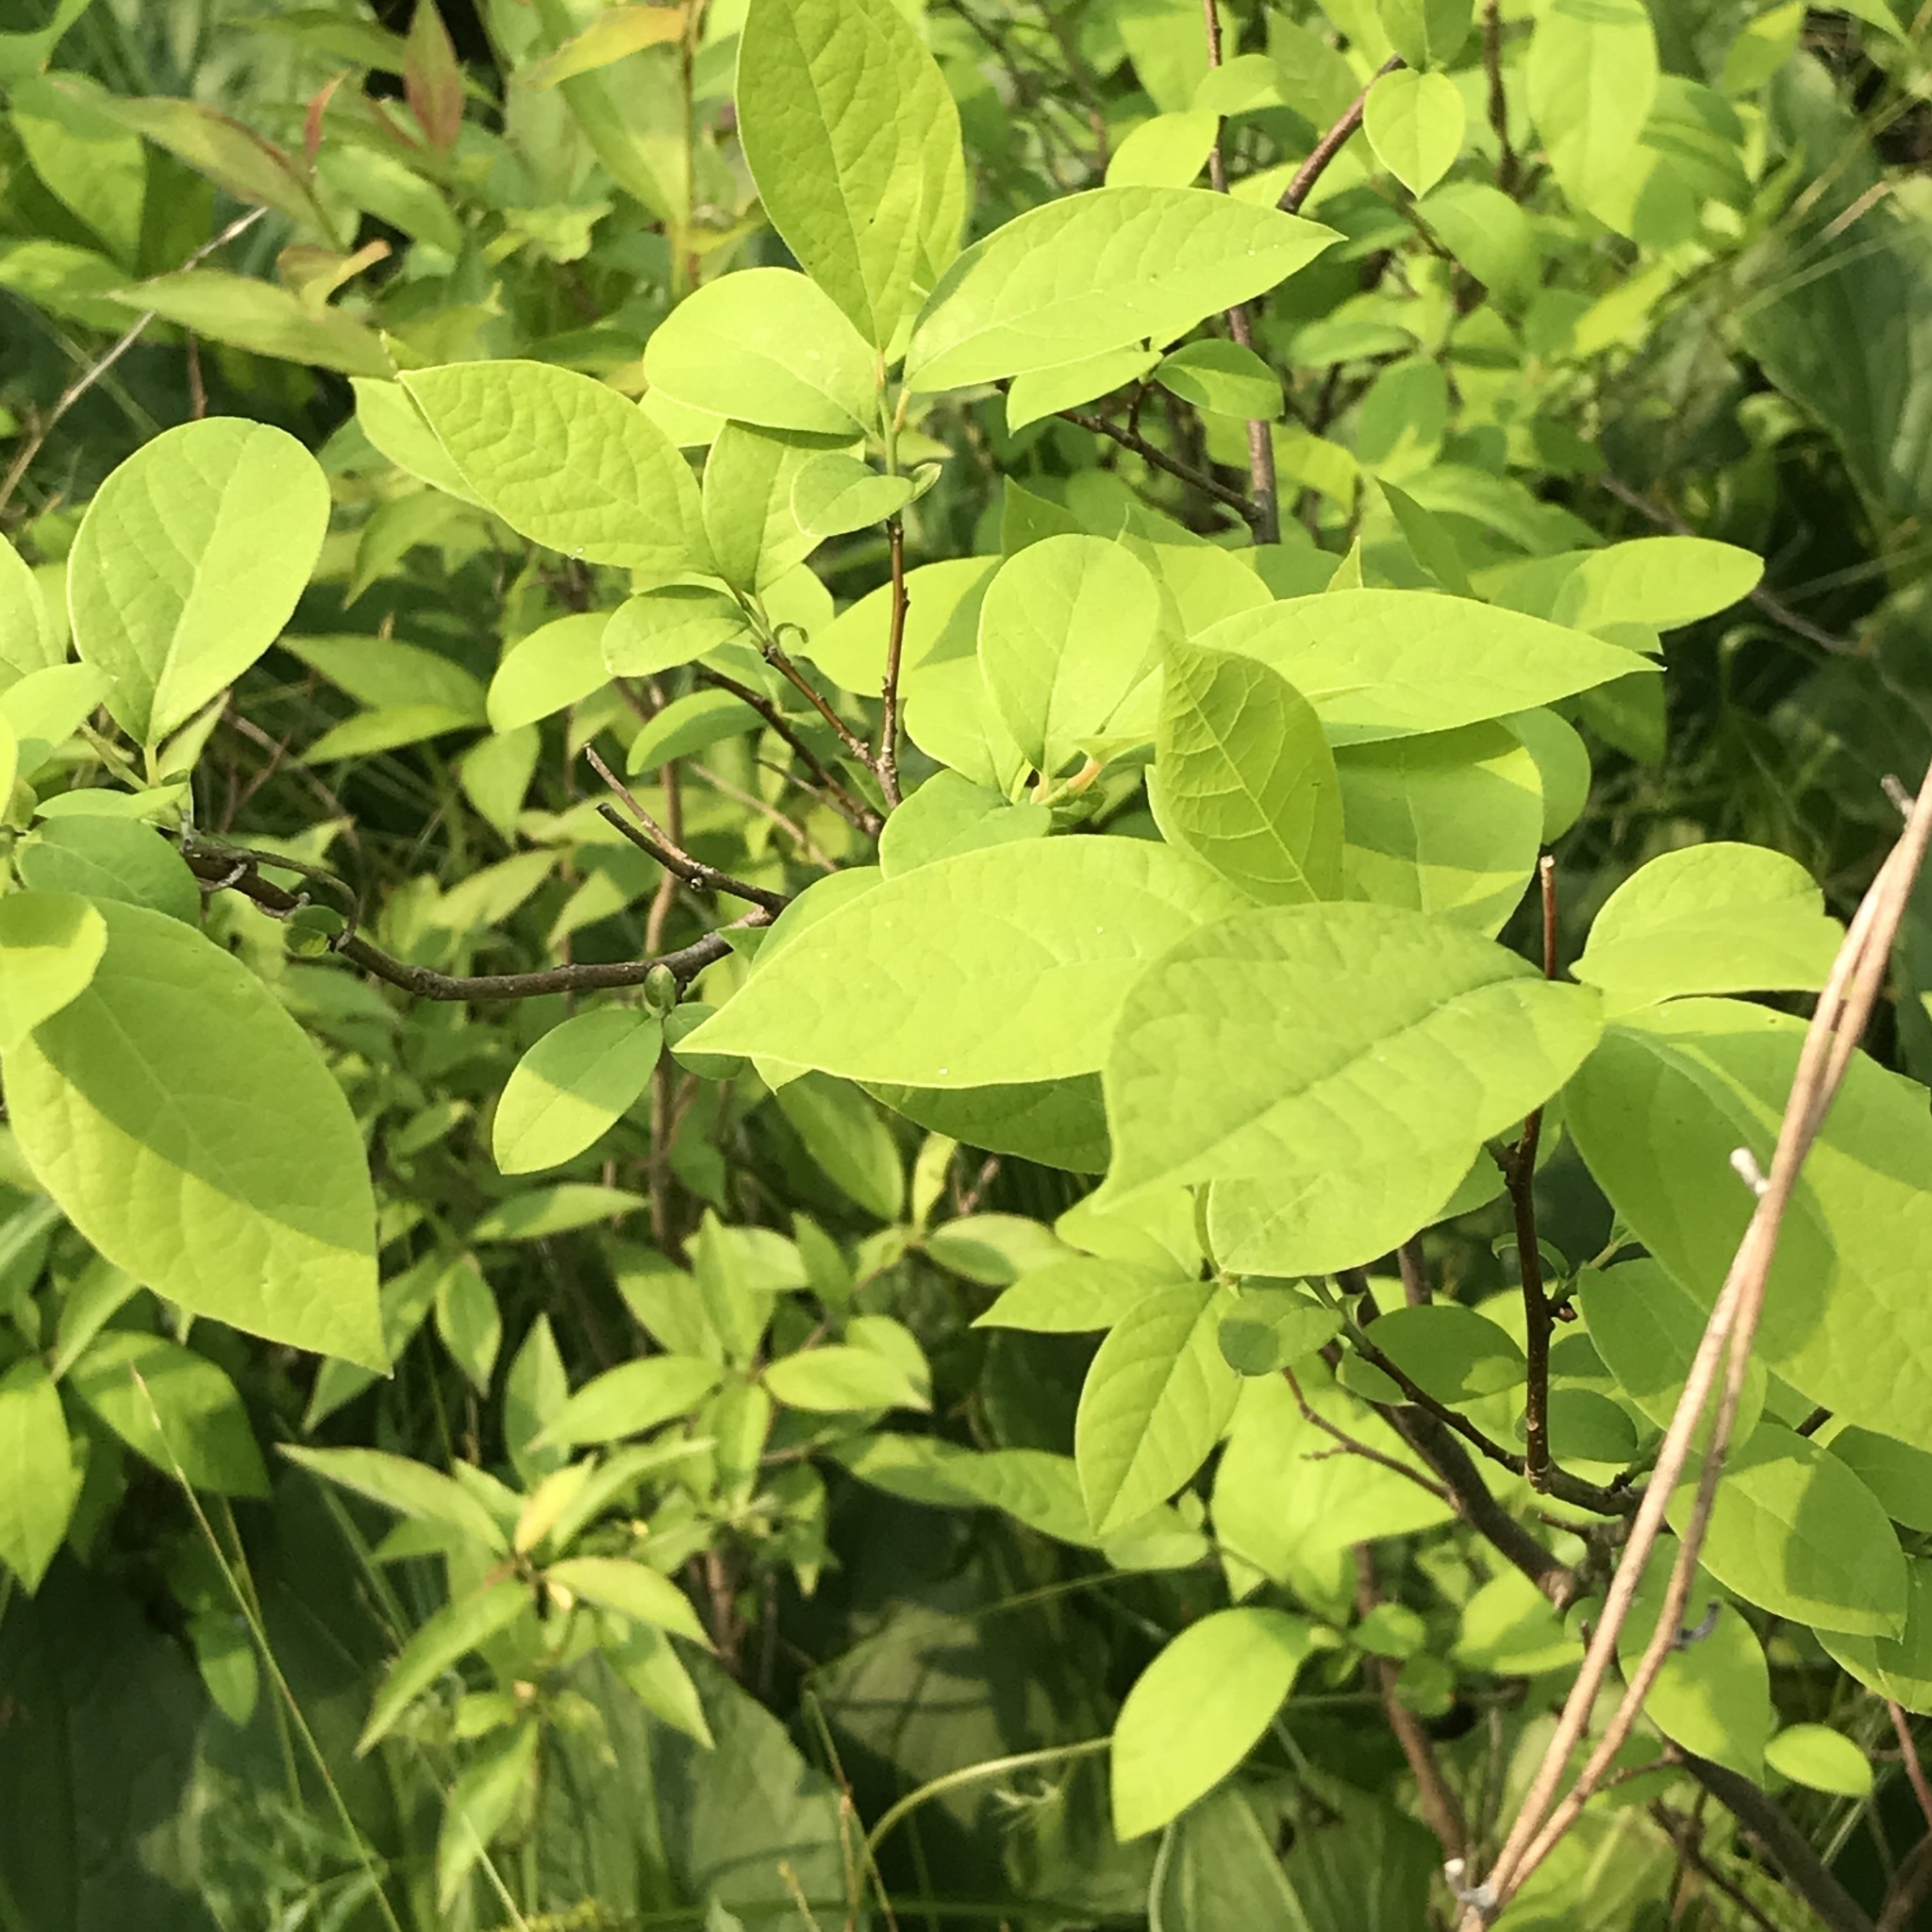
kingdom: Plantae
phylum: Tracheophyta
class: Magnoliopsida
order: Laurales
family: Lauraceae
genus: Lindera
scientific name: Lindera benzoin
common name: Spicebush
